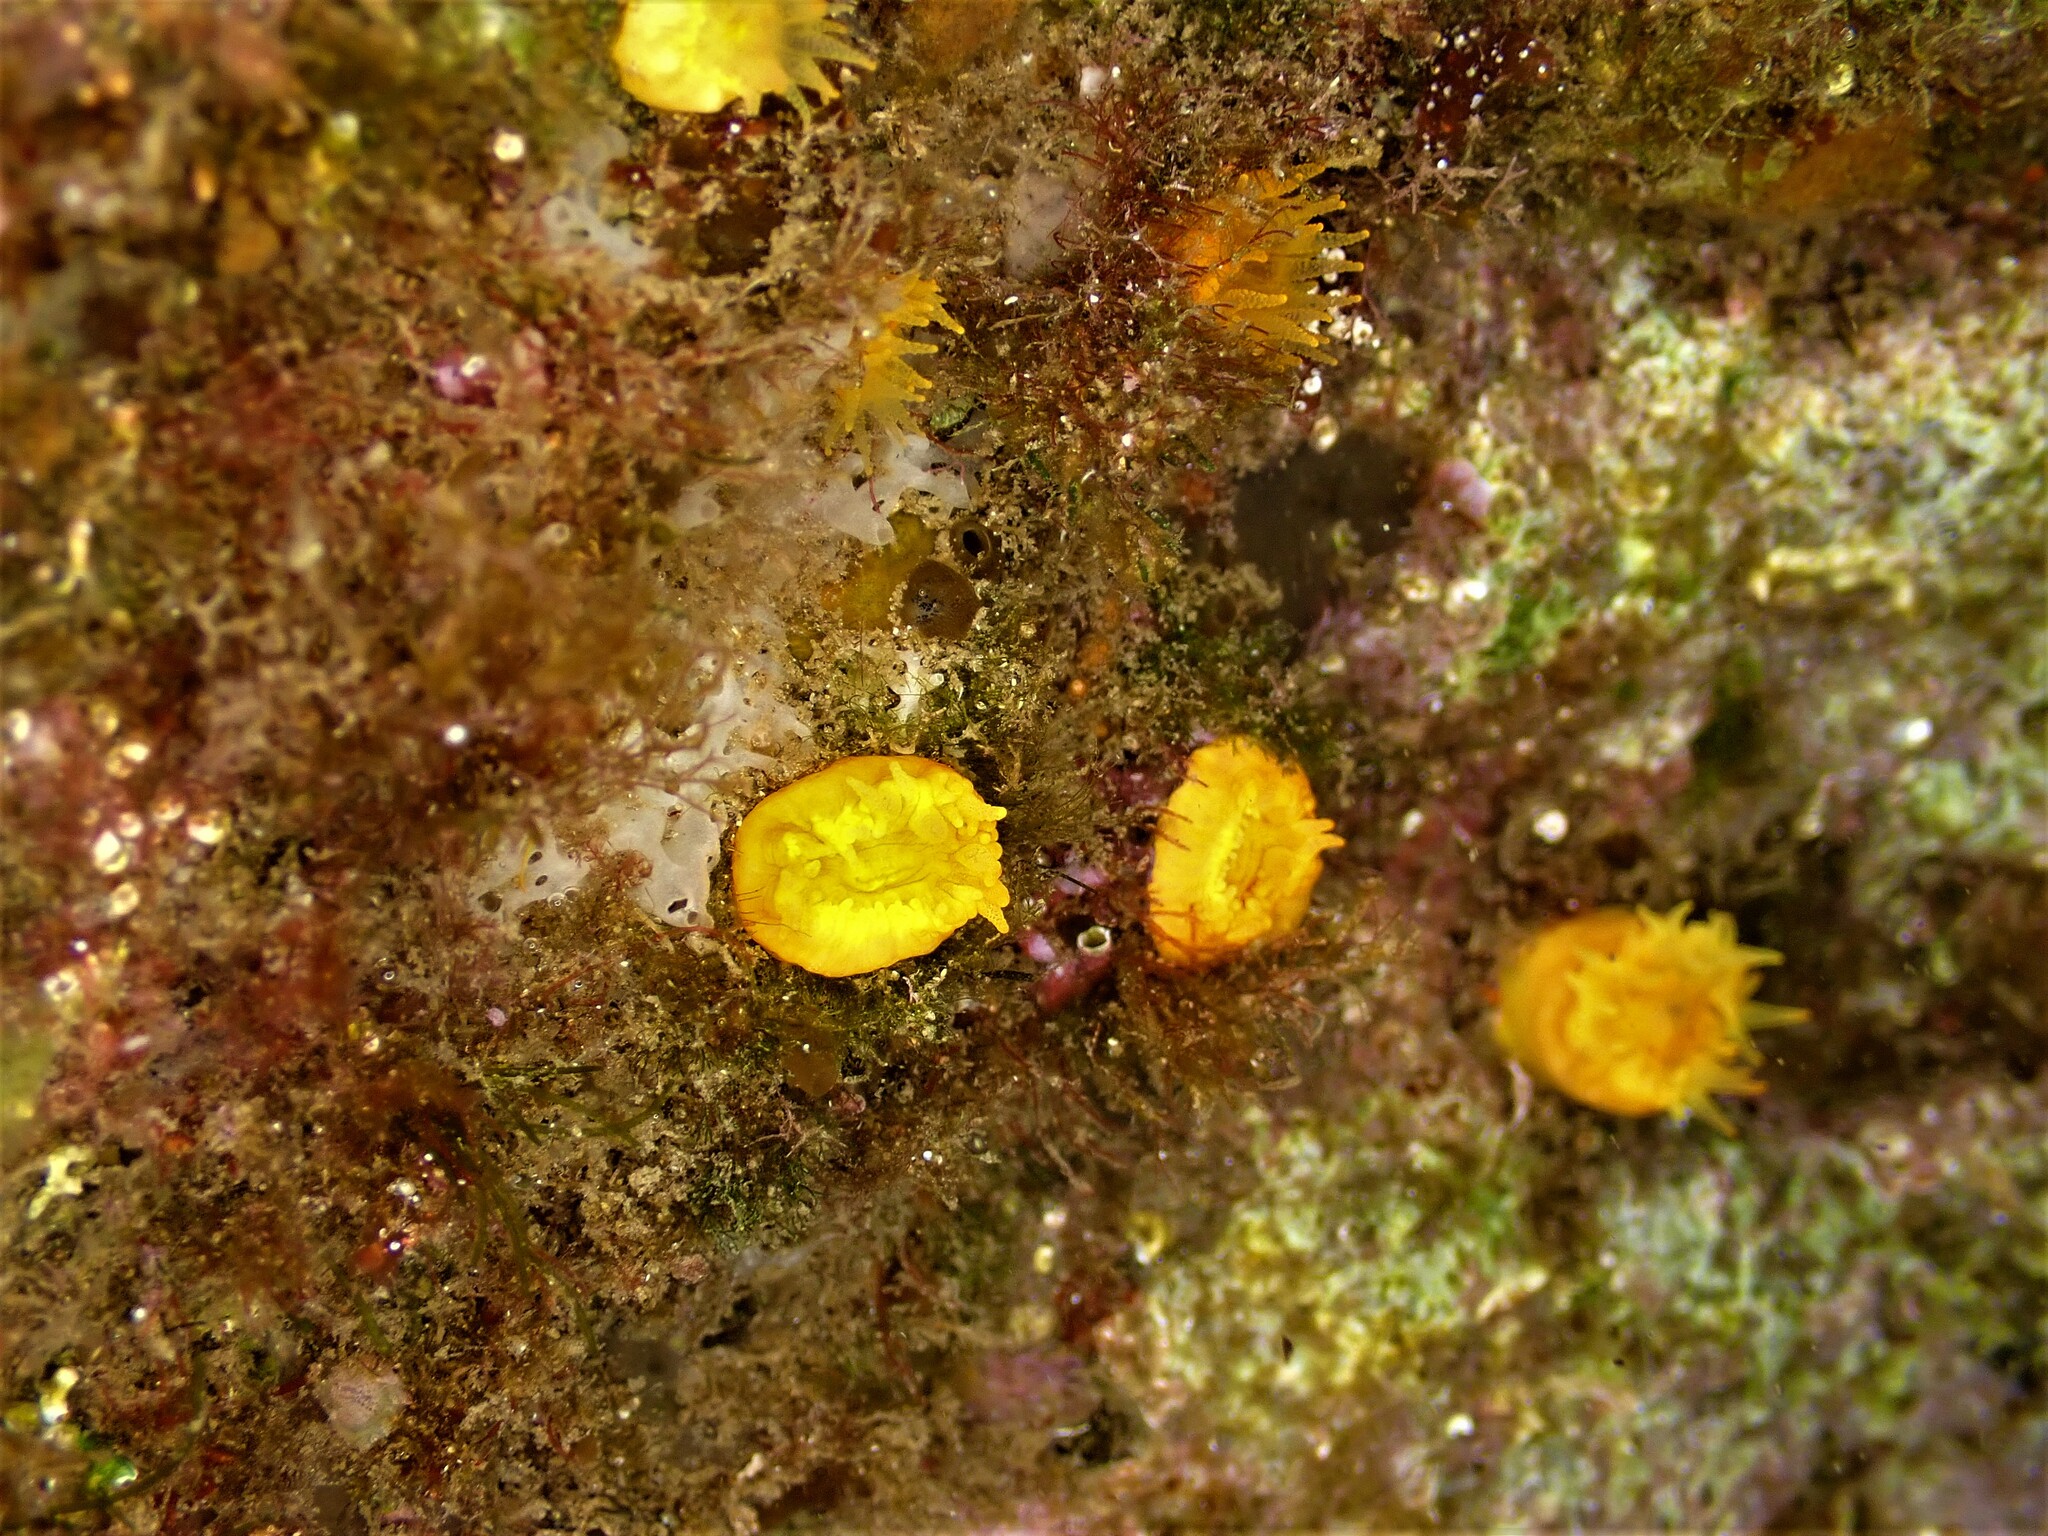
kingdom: Animalia
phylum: Cnidaria
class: Anthozoa
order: Scleractinia
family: Dendrophylliidae
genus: Balanophyllia
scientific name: Balanophyllia regia
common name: Golden star coral
